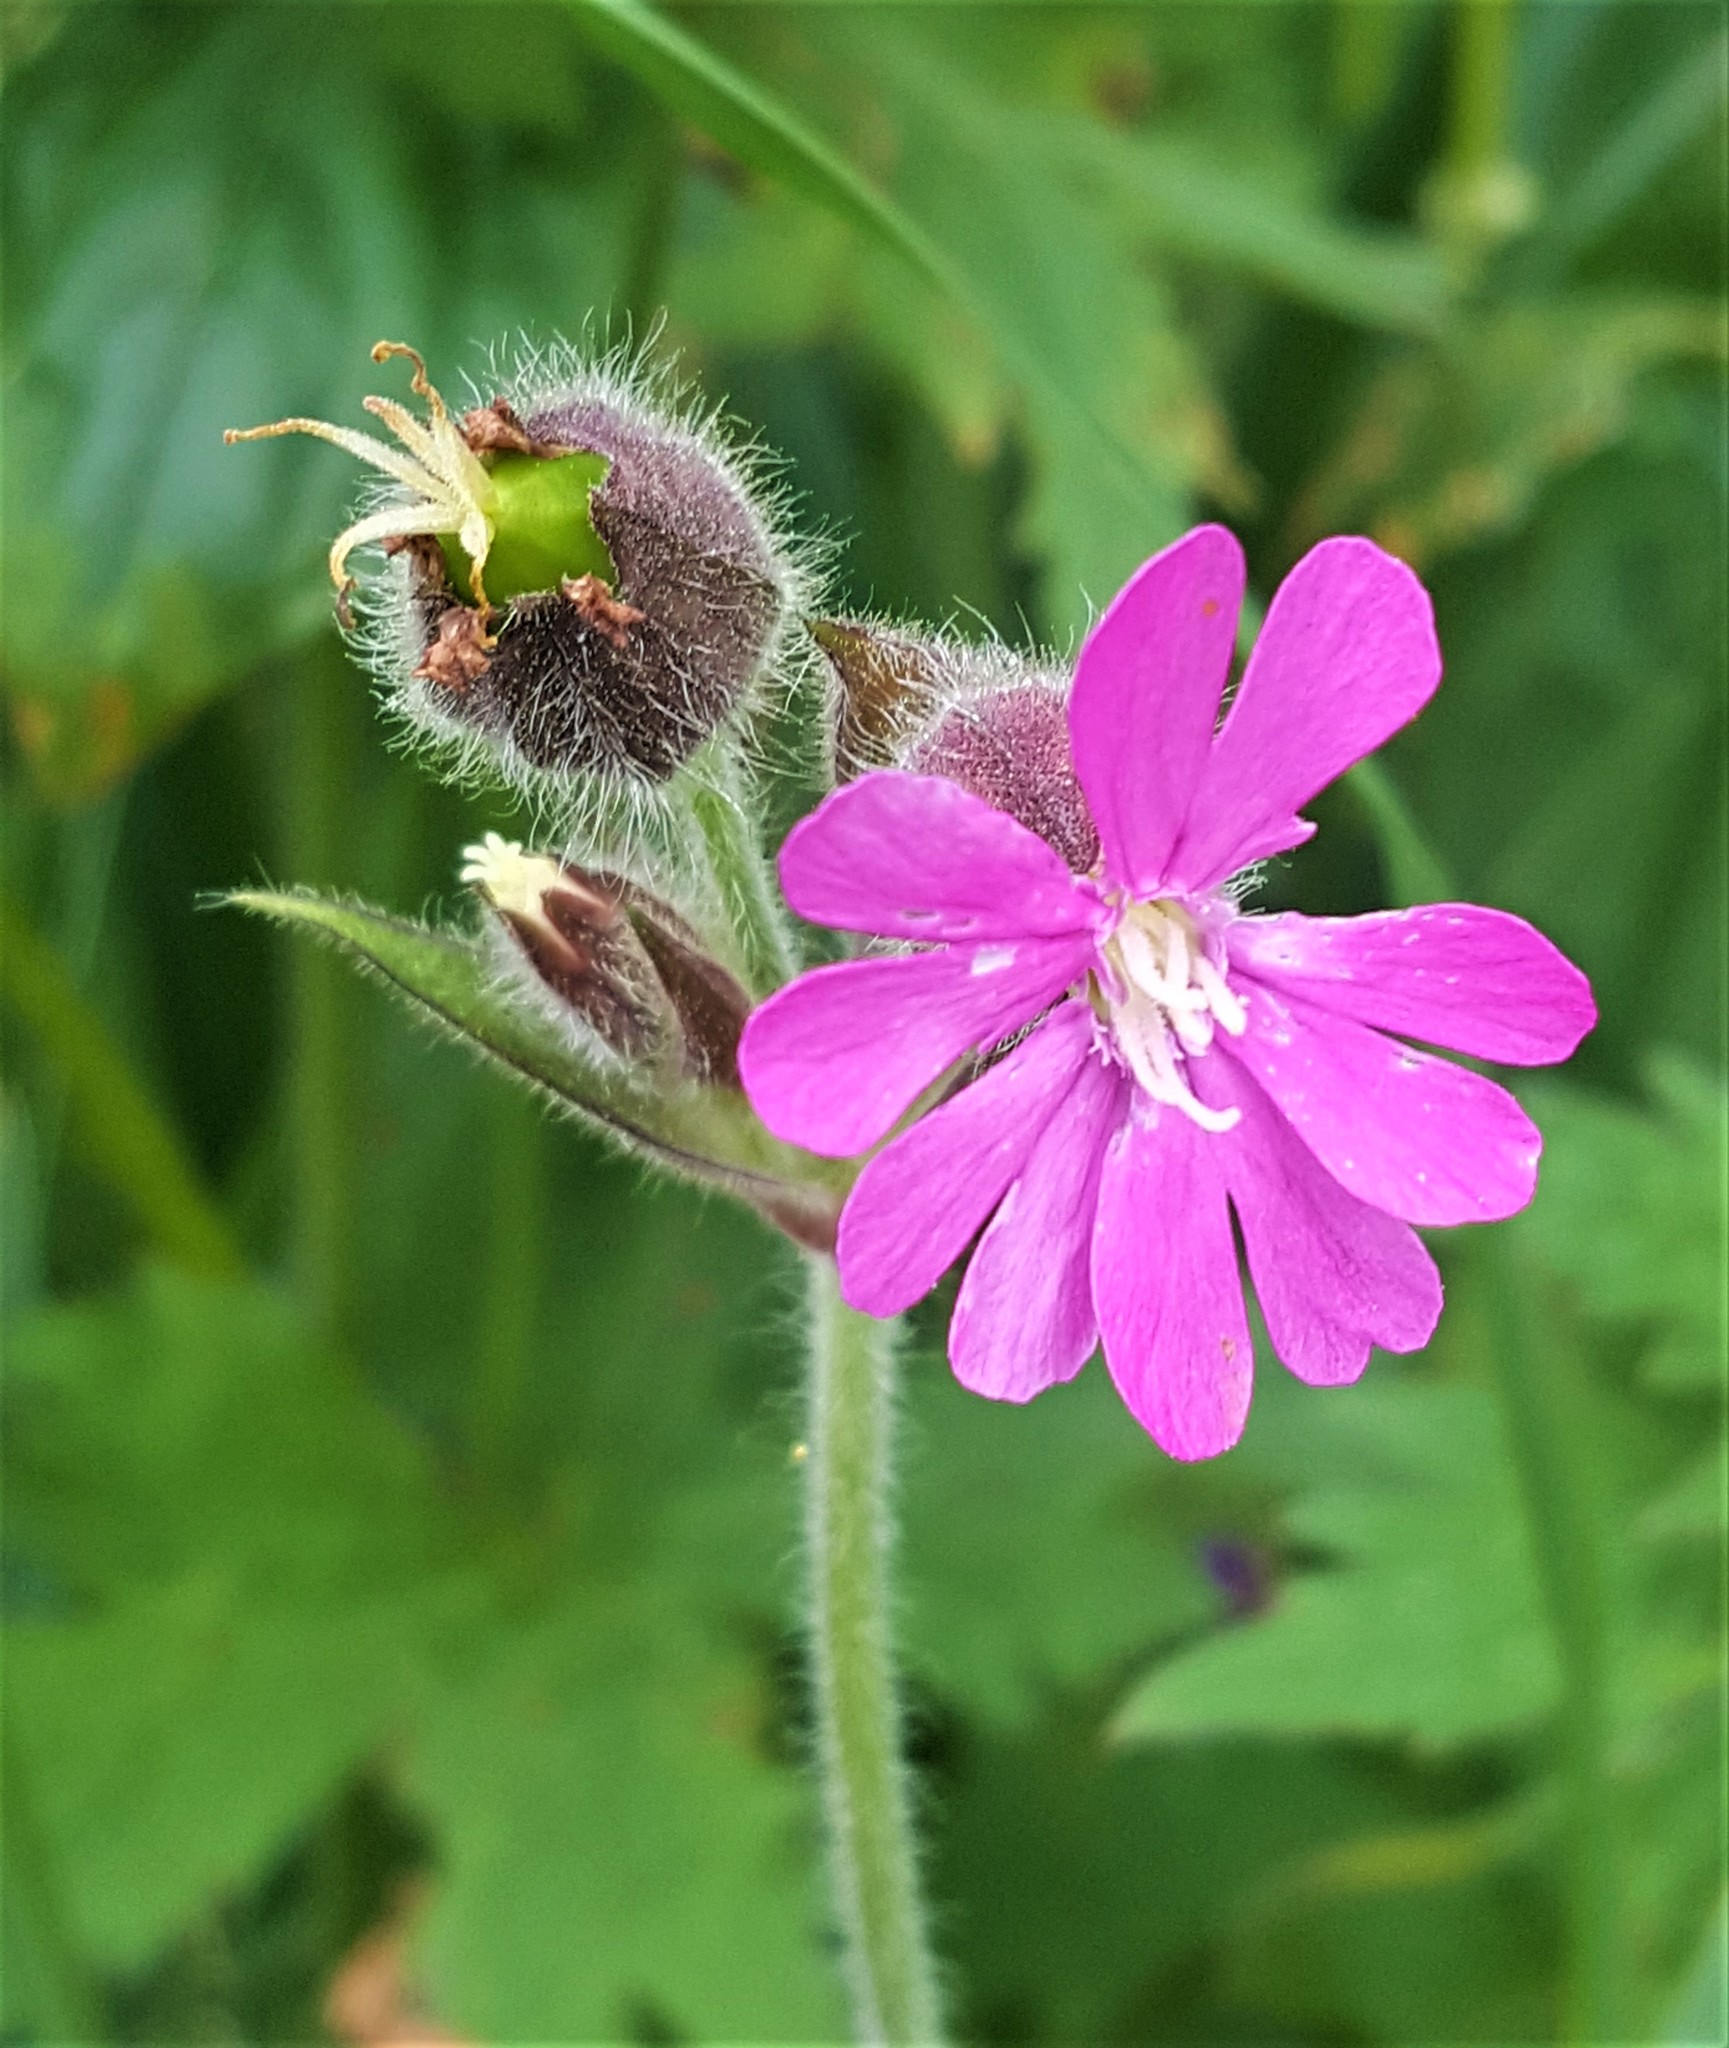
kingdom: Plantae
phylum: Tracheophyta
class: Magnoliopsida
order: Caryophyllales
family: Caryophyllaceae
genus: Silene
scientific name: Silene dioica
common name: Red campion
